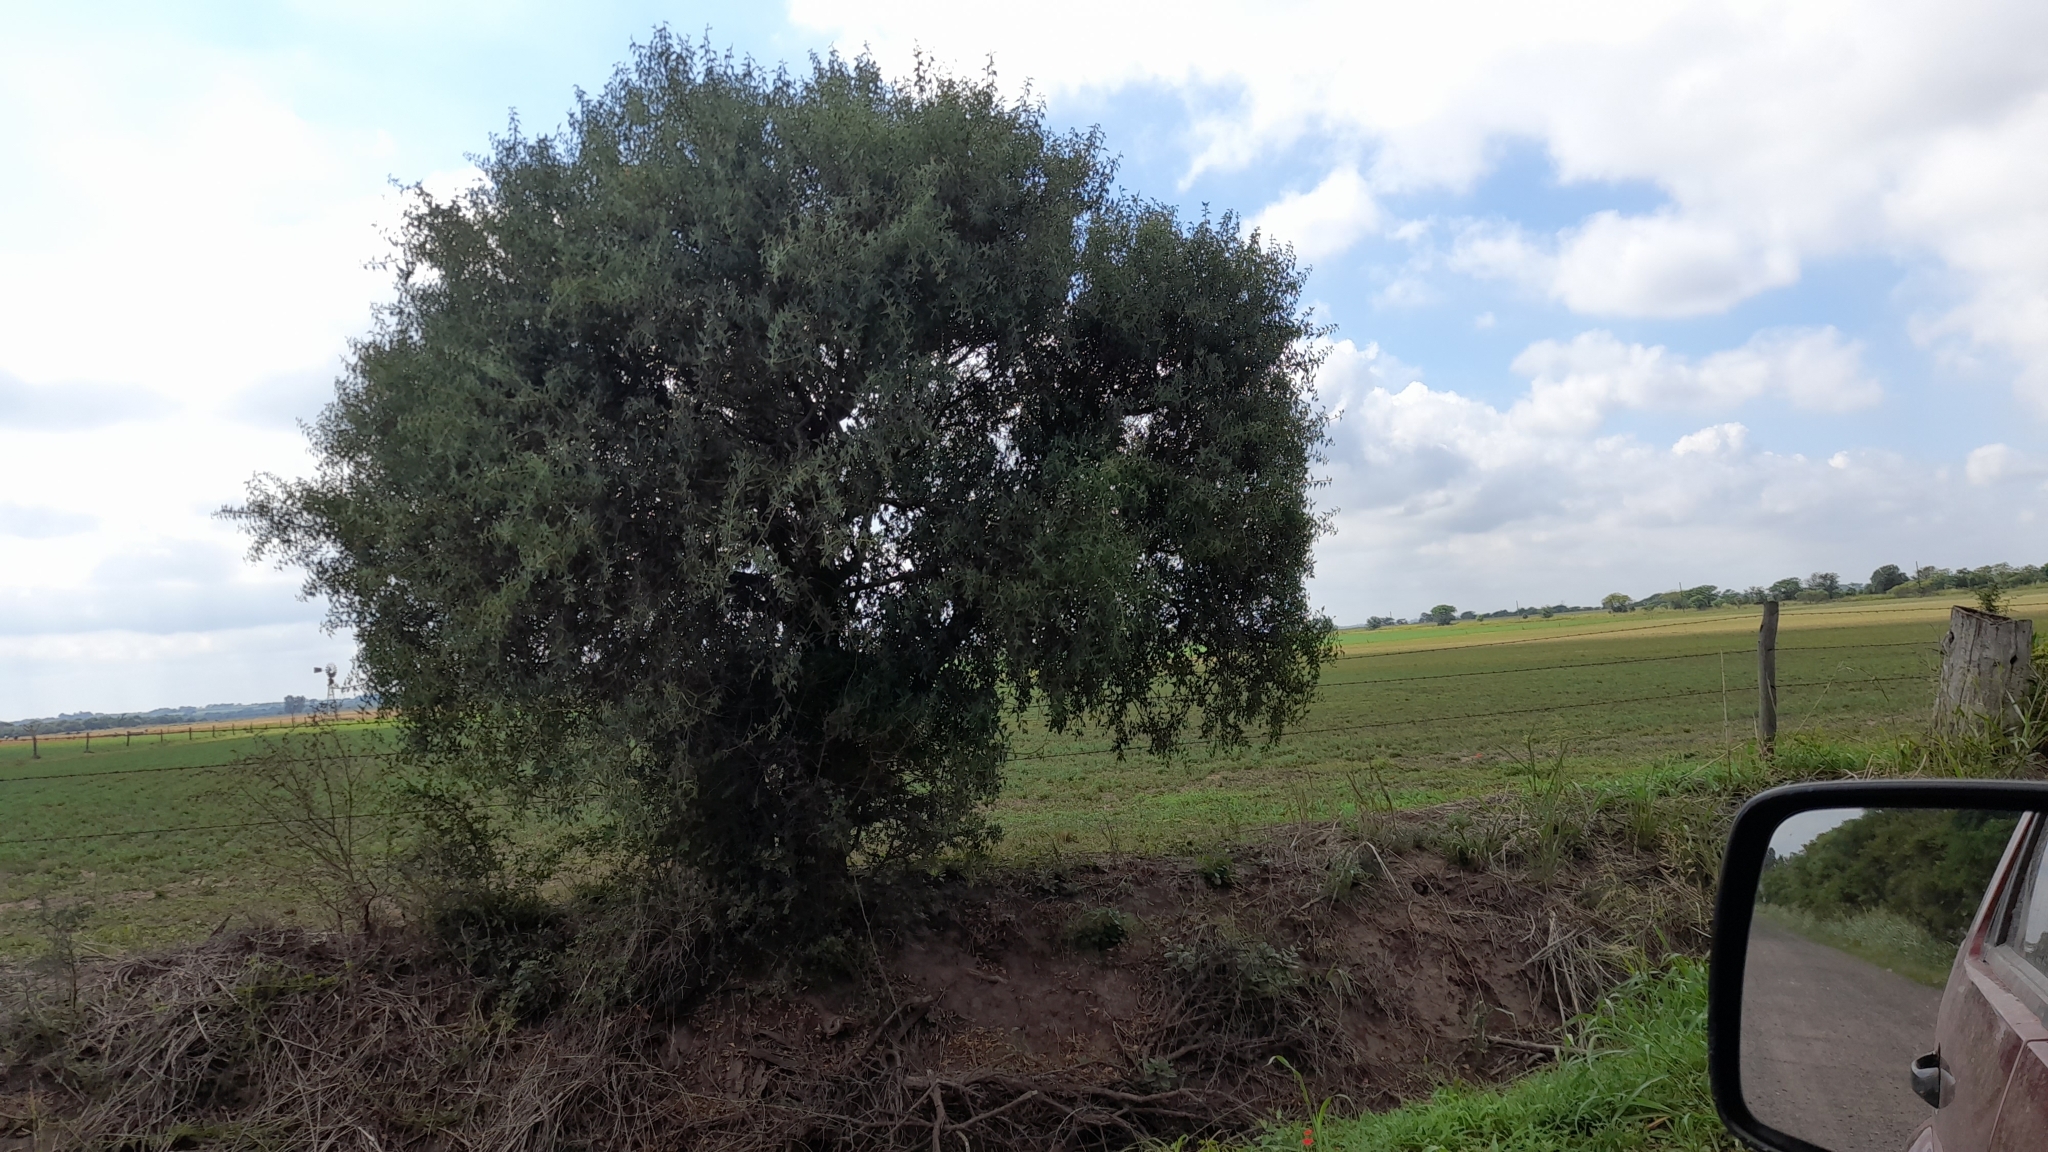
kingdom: Plantae
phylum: Tracheophyta
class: Magnoliopsida
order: Santalales
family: Cervantesiaceae
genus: Jodina
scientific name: Jodina rhombifolia
